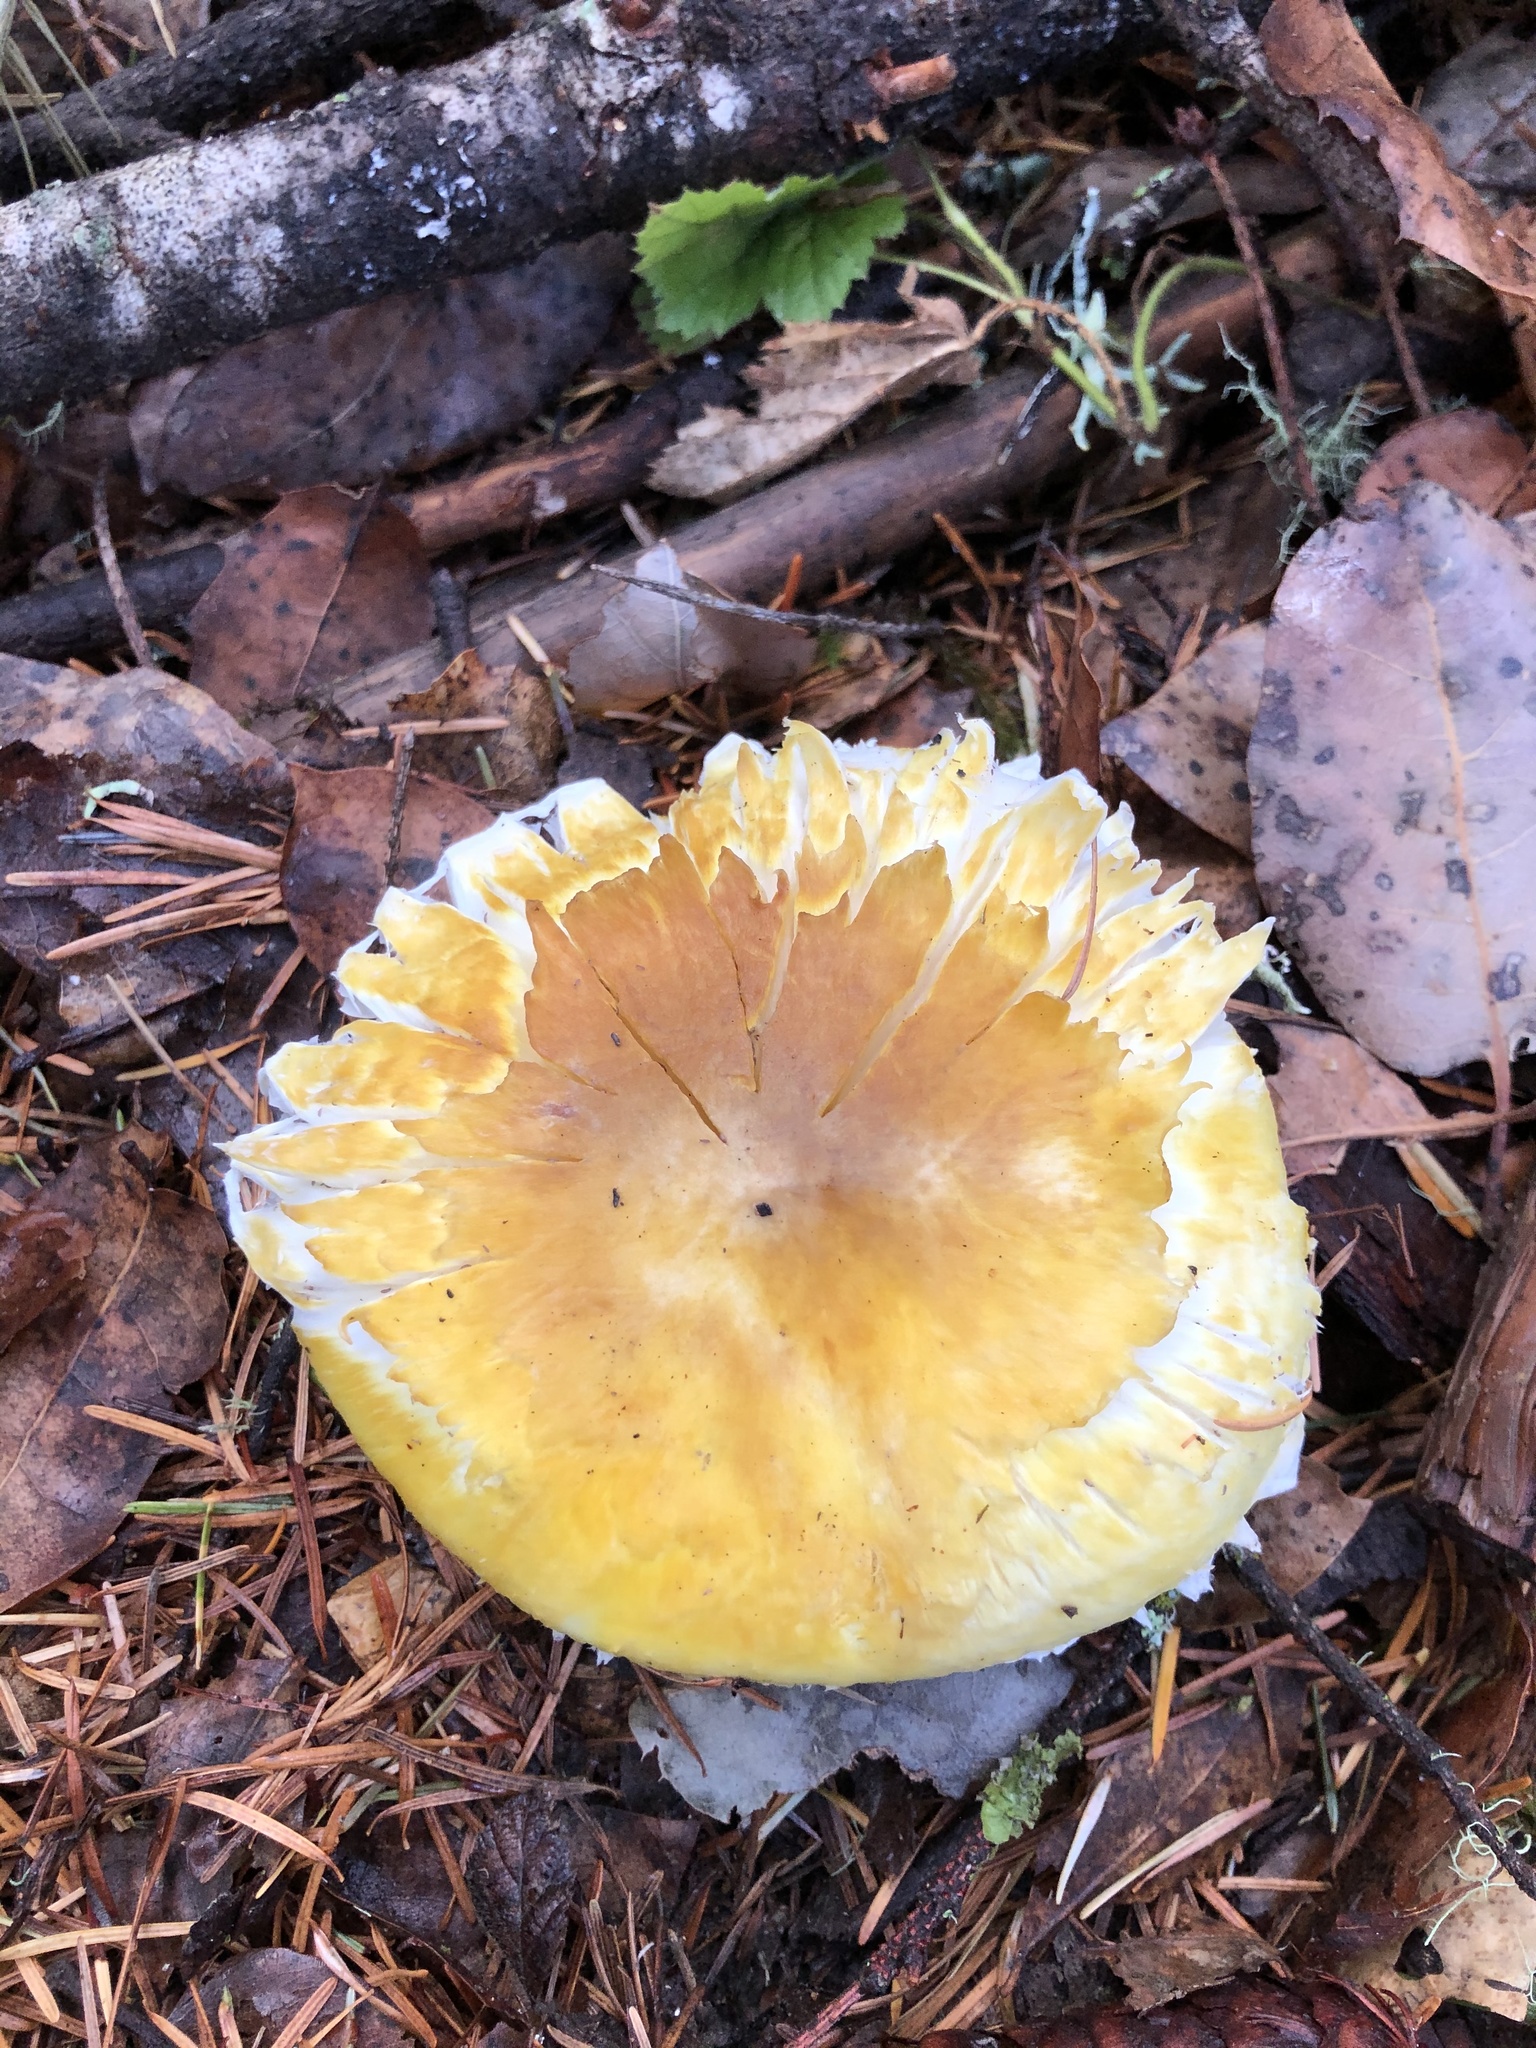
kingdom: Fungi
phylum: Basidiomycota
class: Agaricomycetes
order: Agaricales
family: Agaricaceae
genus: Floccularia
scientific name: Floccularia albolanaripes
